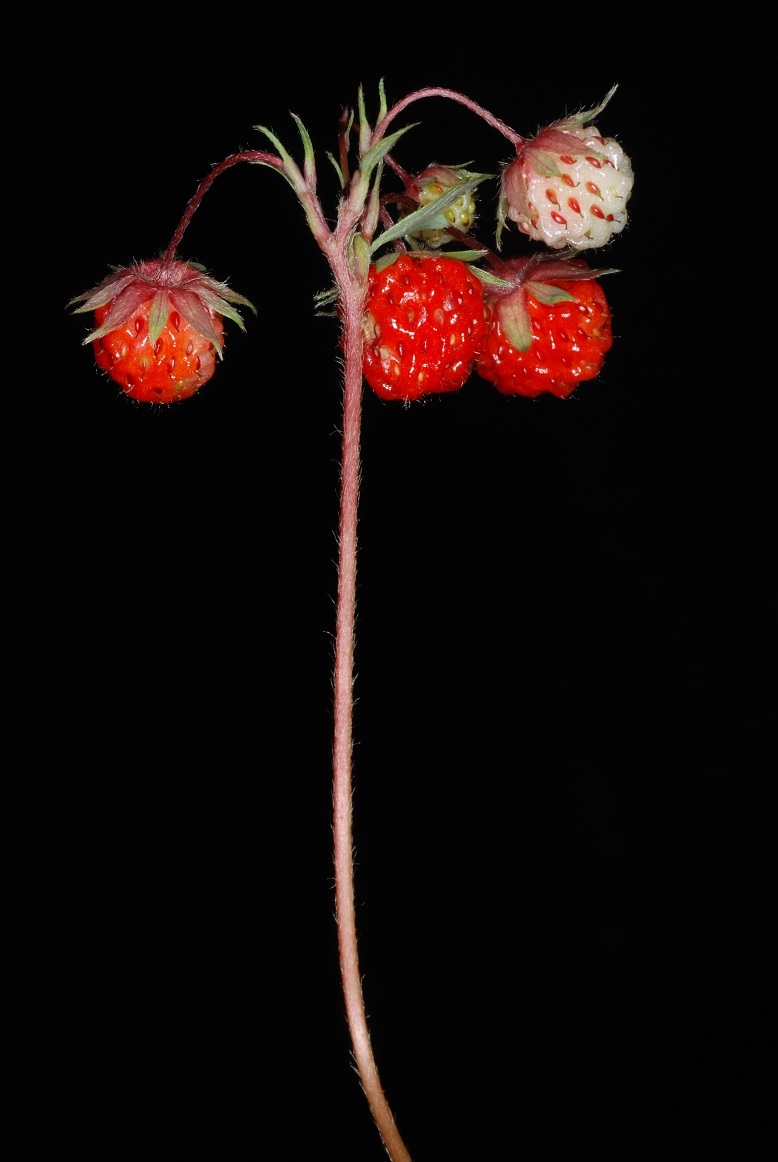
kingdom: Plantae
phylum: Tracheophyta
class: Magnoliopsida
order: Rosales
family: Rosaceae
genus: Fragaria
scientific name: Fragaria virginiana
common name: Thickleaved wild strawberry
